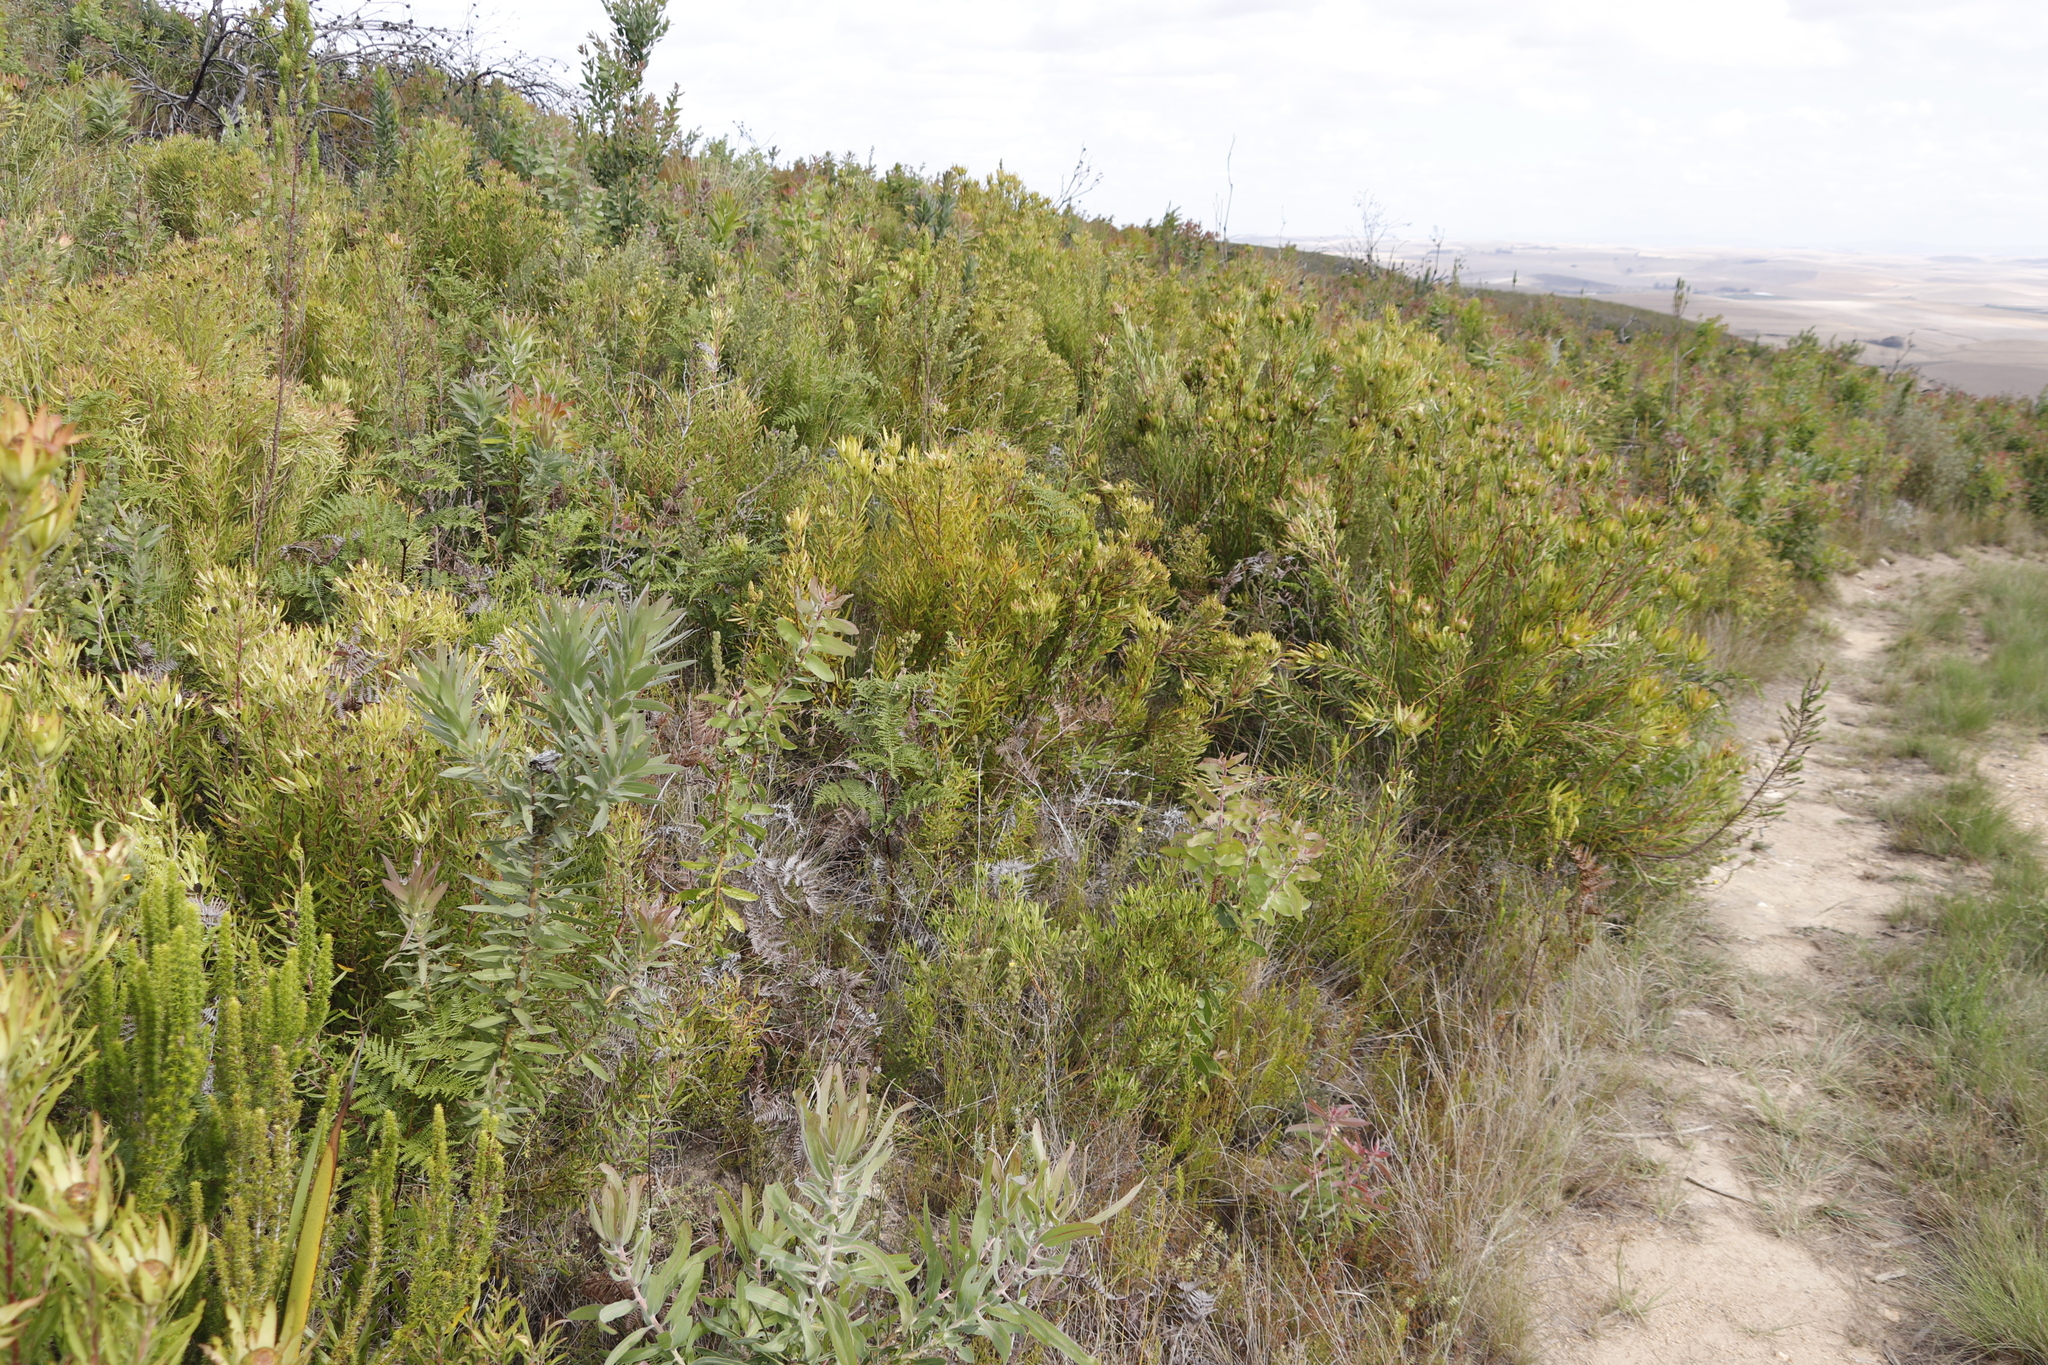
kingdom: Plantae
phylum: Tracheophyta
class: Magnoliopsida
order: Proteales
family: Proteaceae
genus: Protea
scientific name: Protea coronata
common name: Green sugarbush
